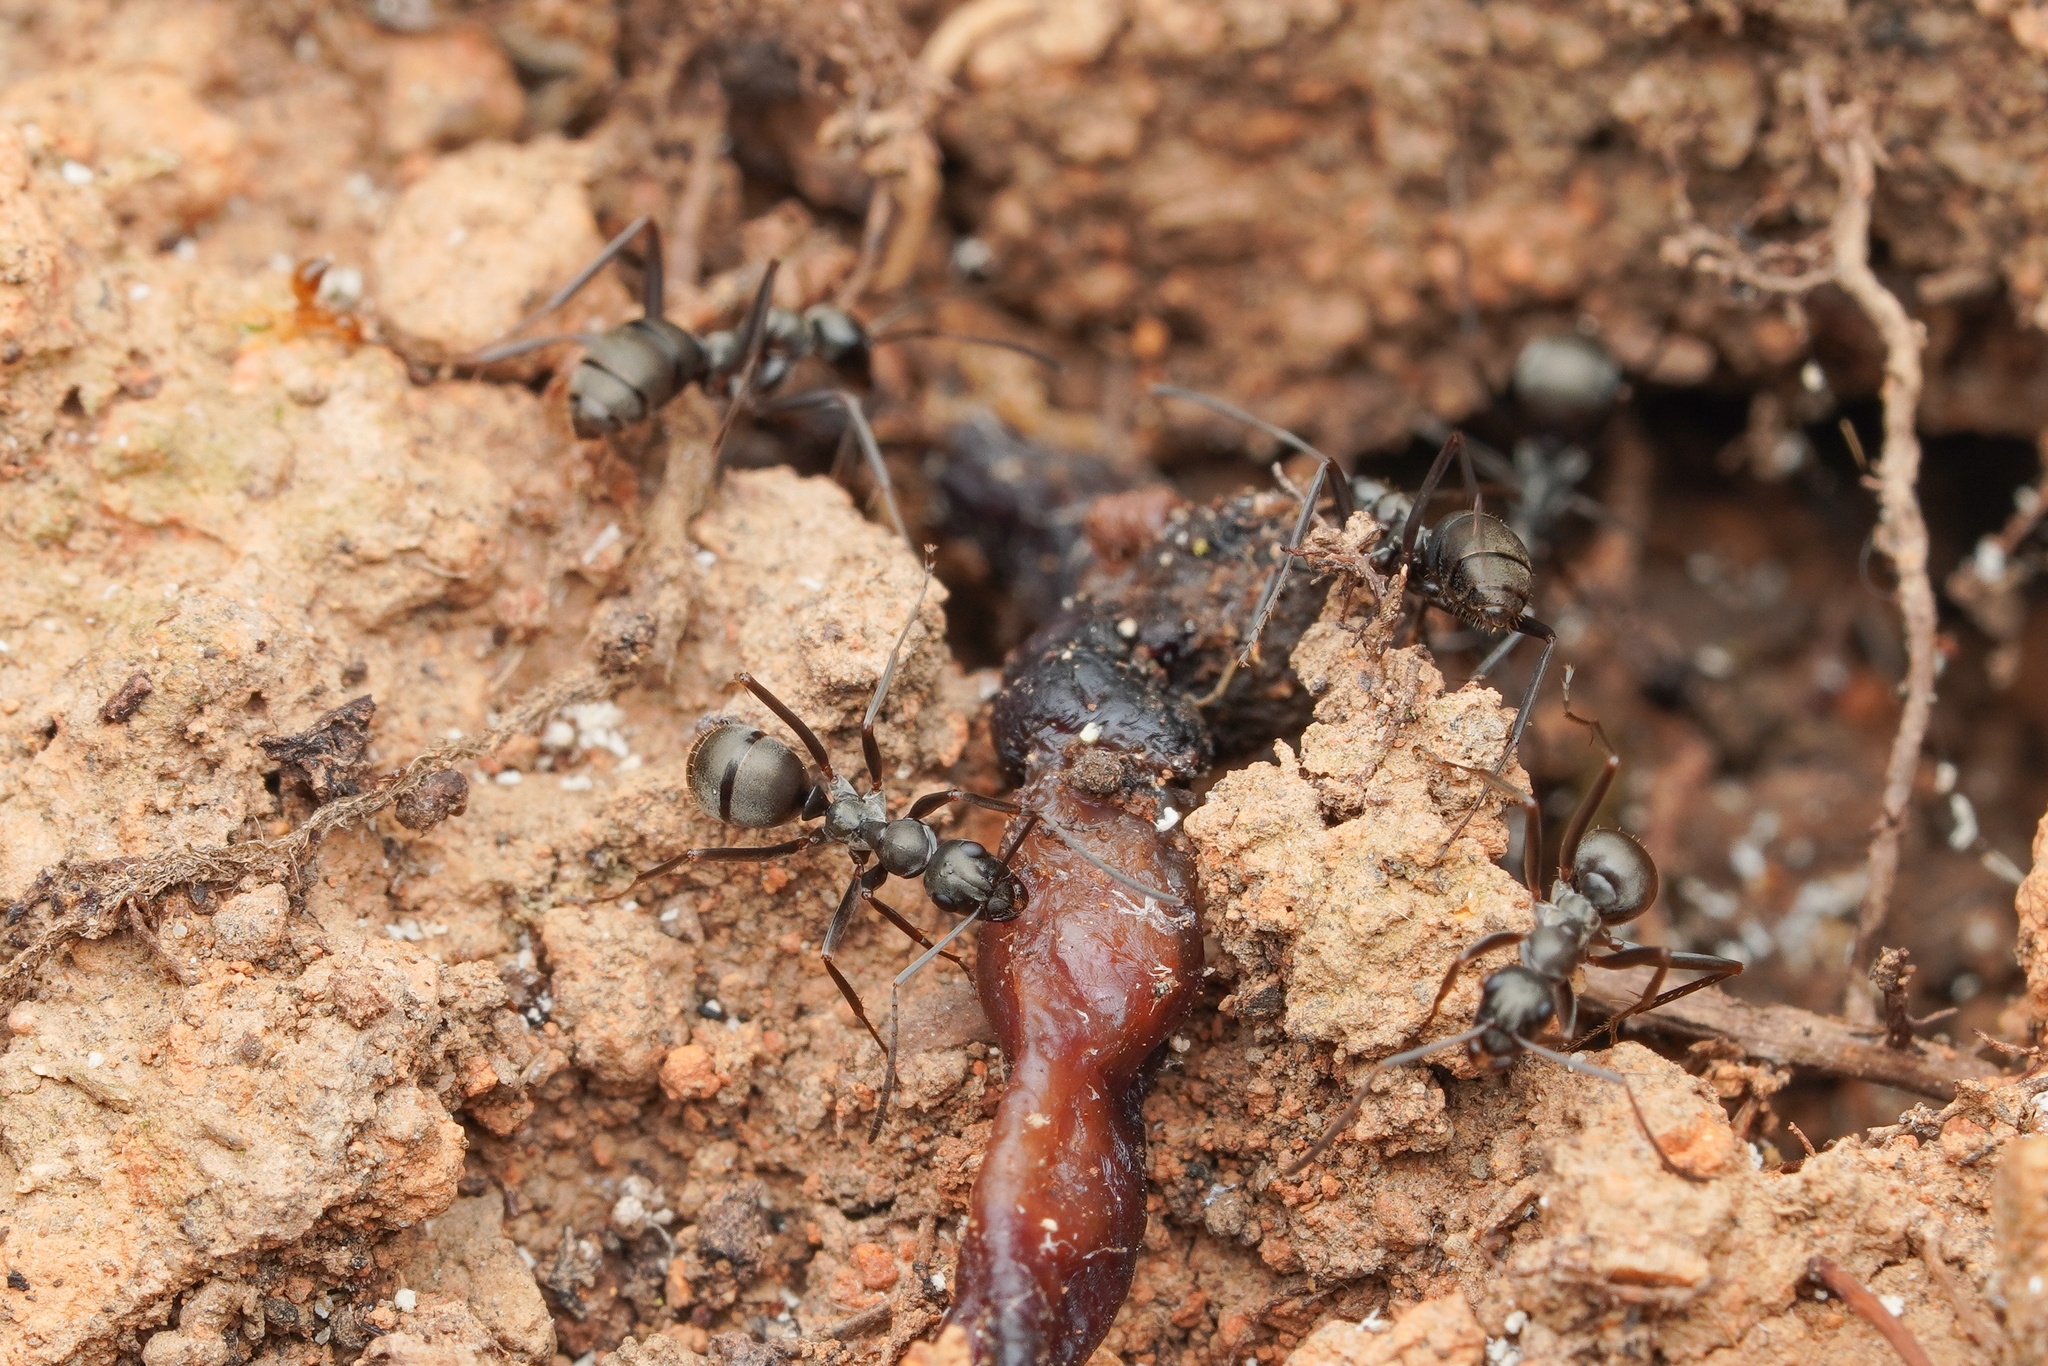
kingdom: Animalia
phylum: Arthropoda
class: Insecta
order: Hymenoptera
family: Formicidae
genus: Formica
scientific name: Formica hayashi
